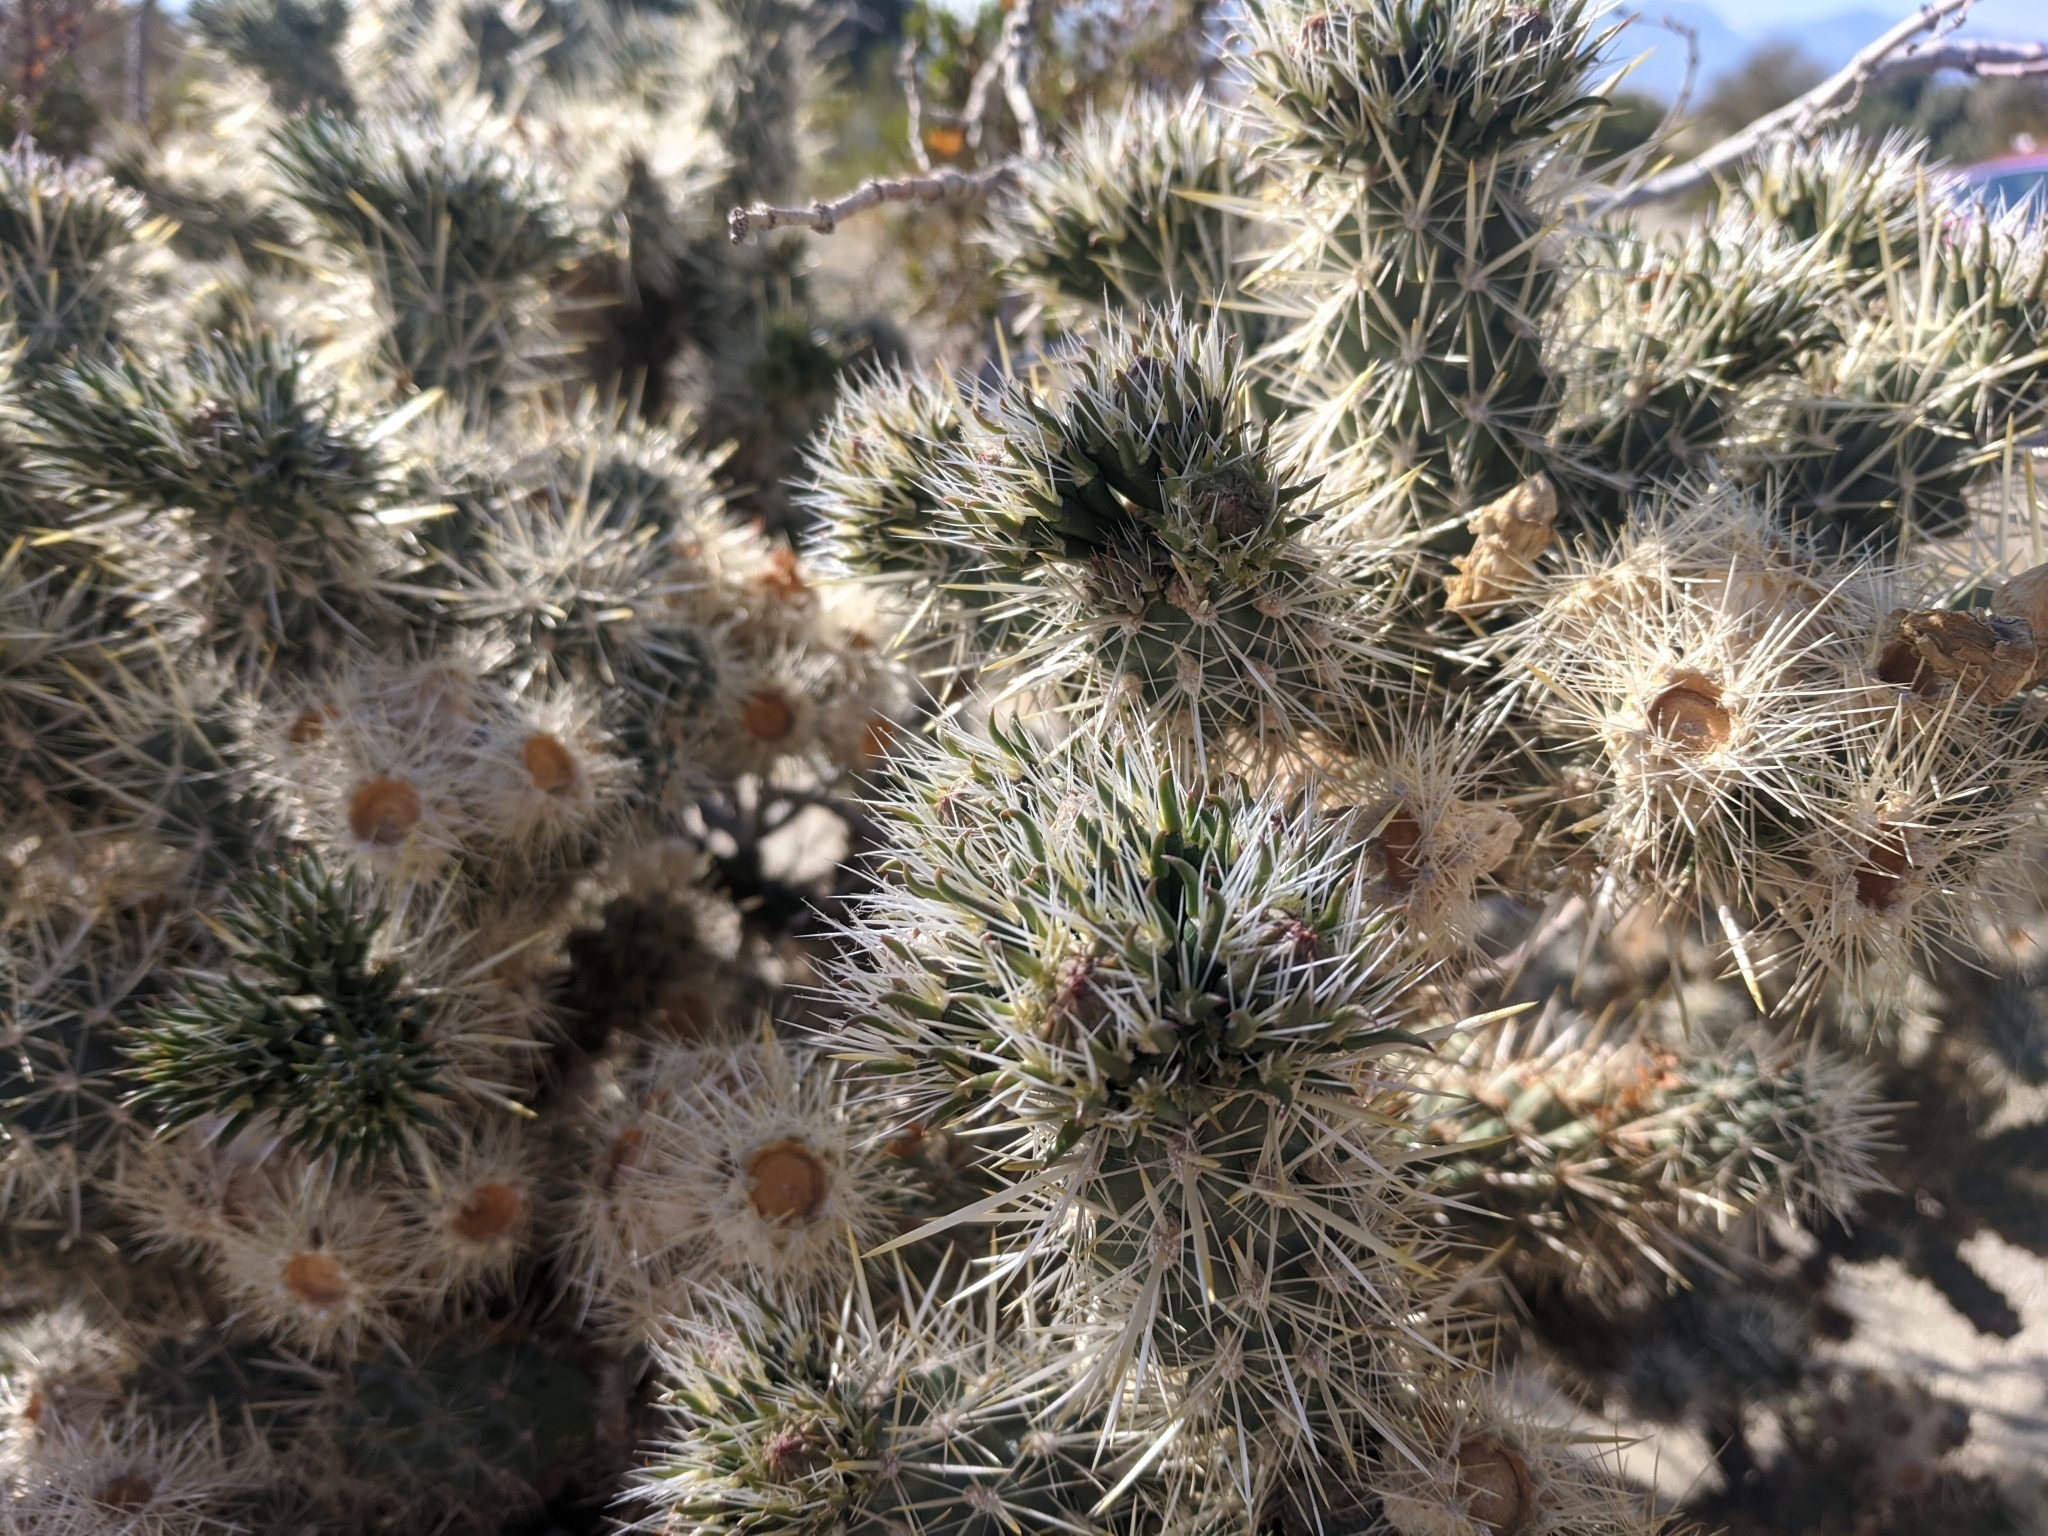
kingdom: Plantae
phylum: Tracheophyta
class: Magnoliopsida
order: Caryophyllales
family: Cactaceae
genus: Cylindropuntia
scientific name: Cylindropuntia echinocarpa
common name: Ground cholla
